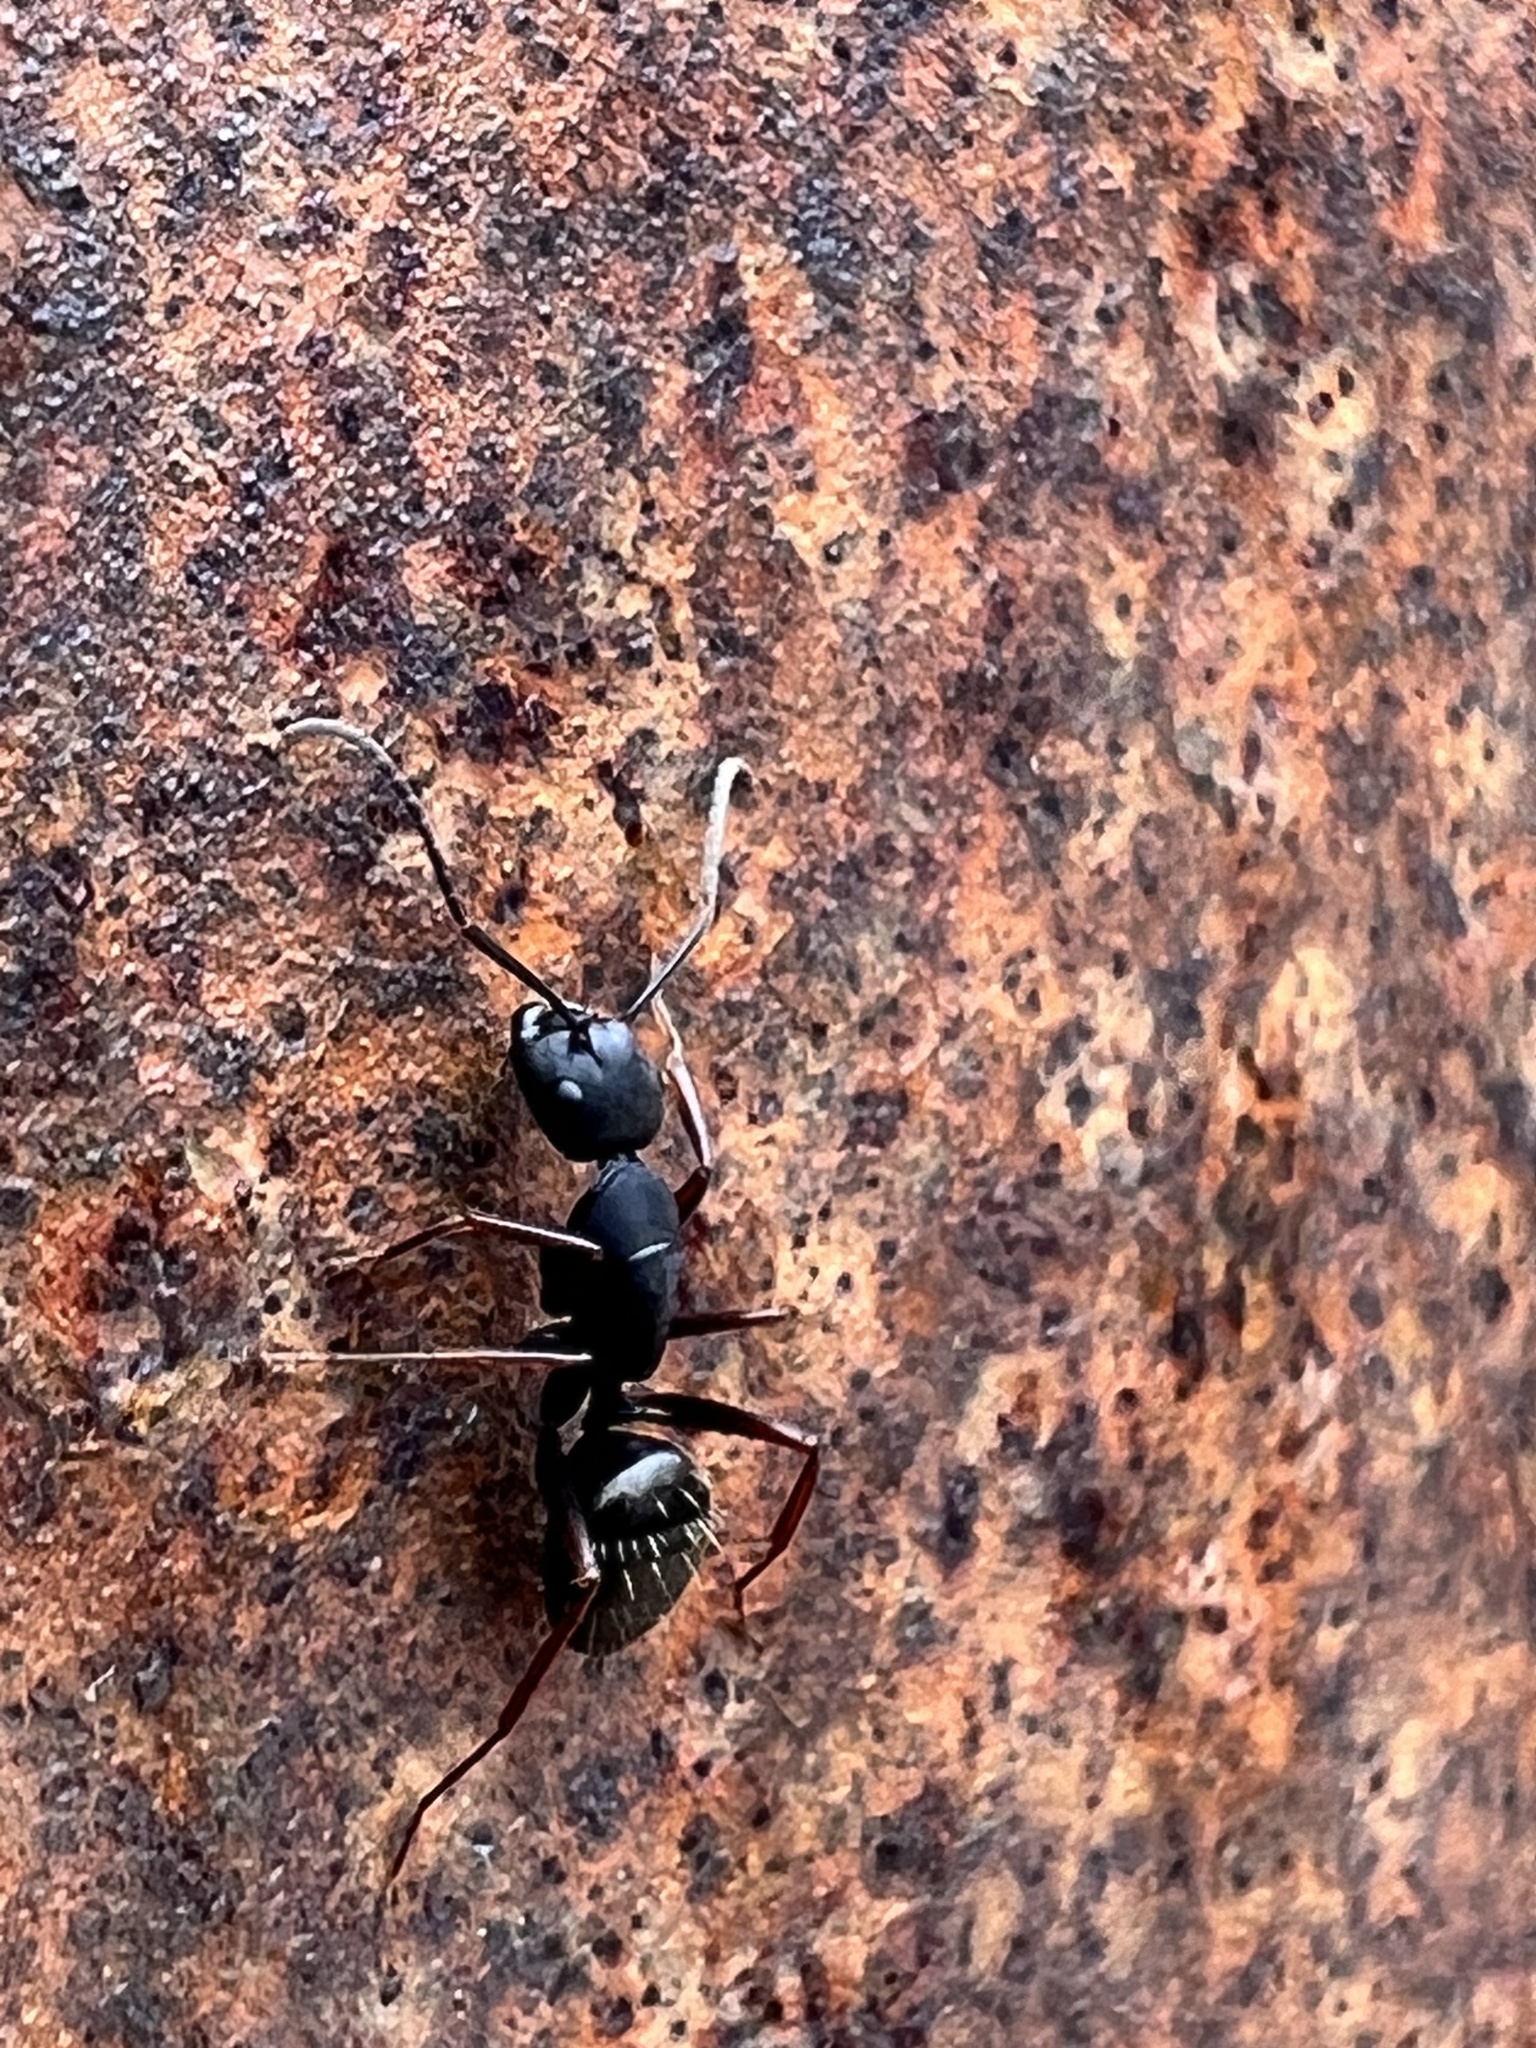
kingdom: Animalia
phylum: Arthropoda
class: Insecta
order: Hymenoptera
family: Formicidae
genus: Camponotus
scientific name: Camponotus modoc
